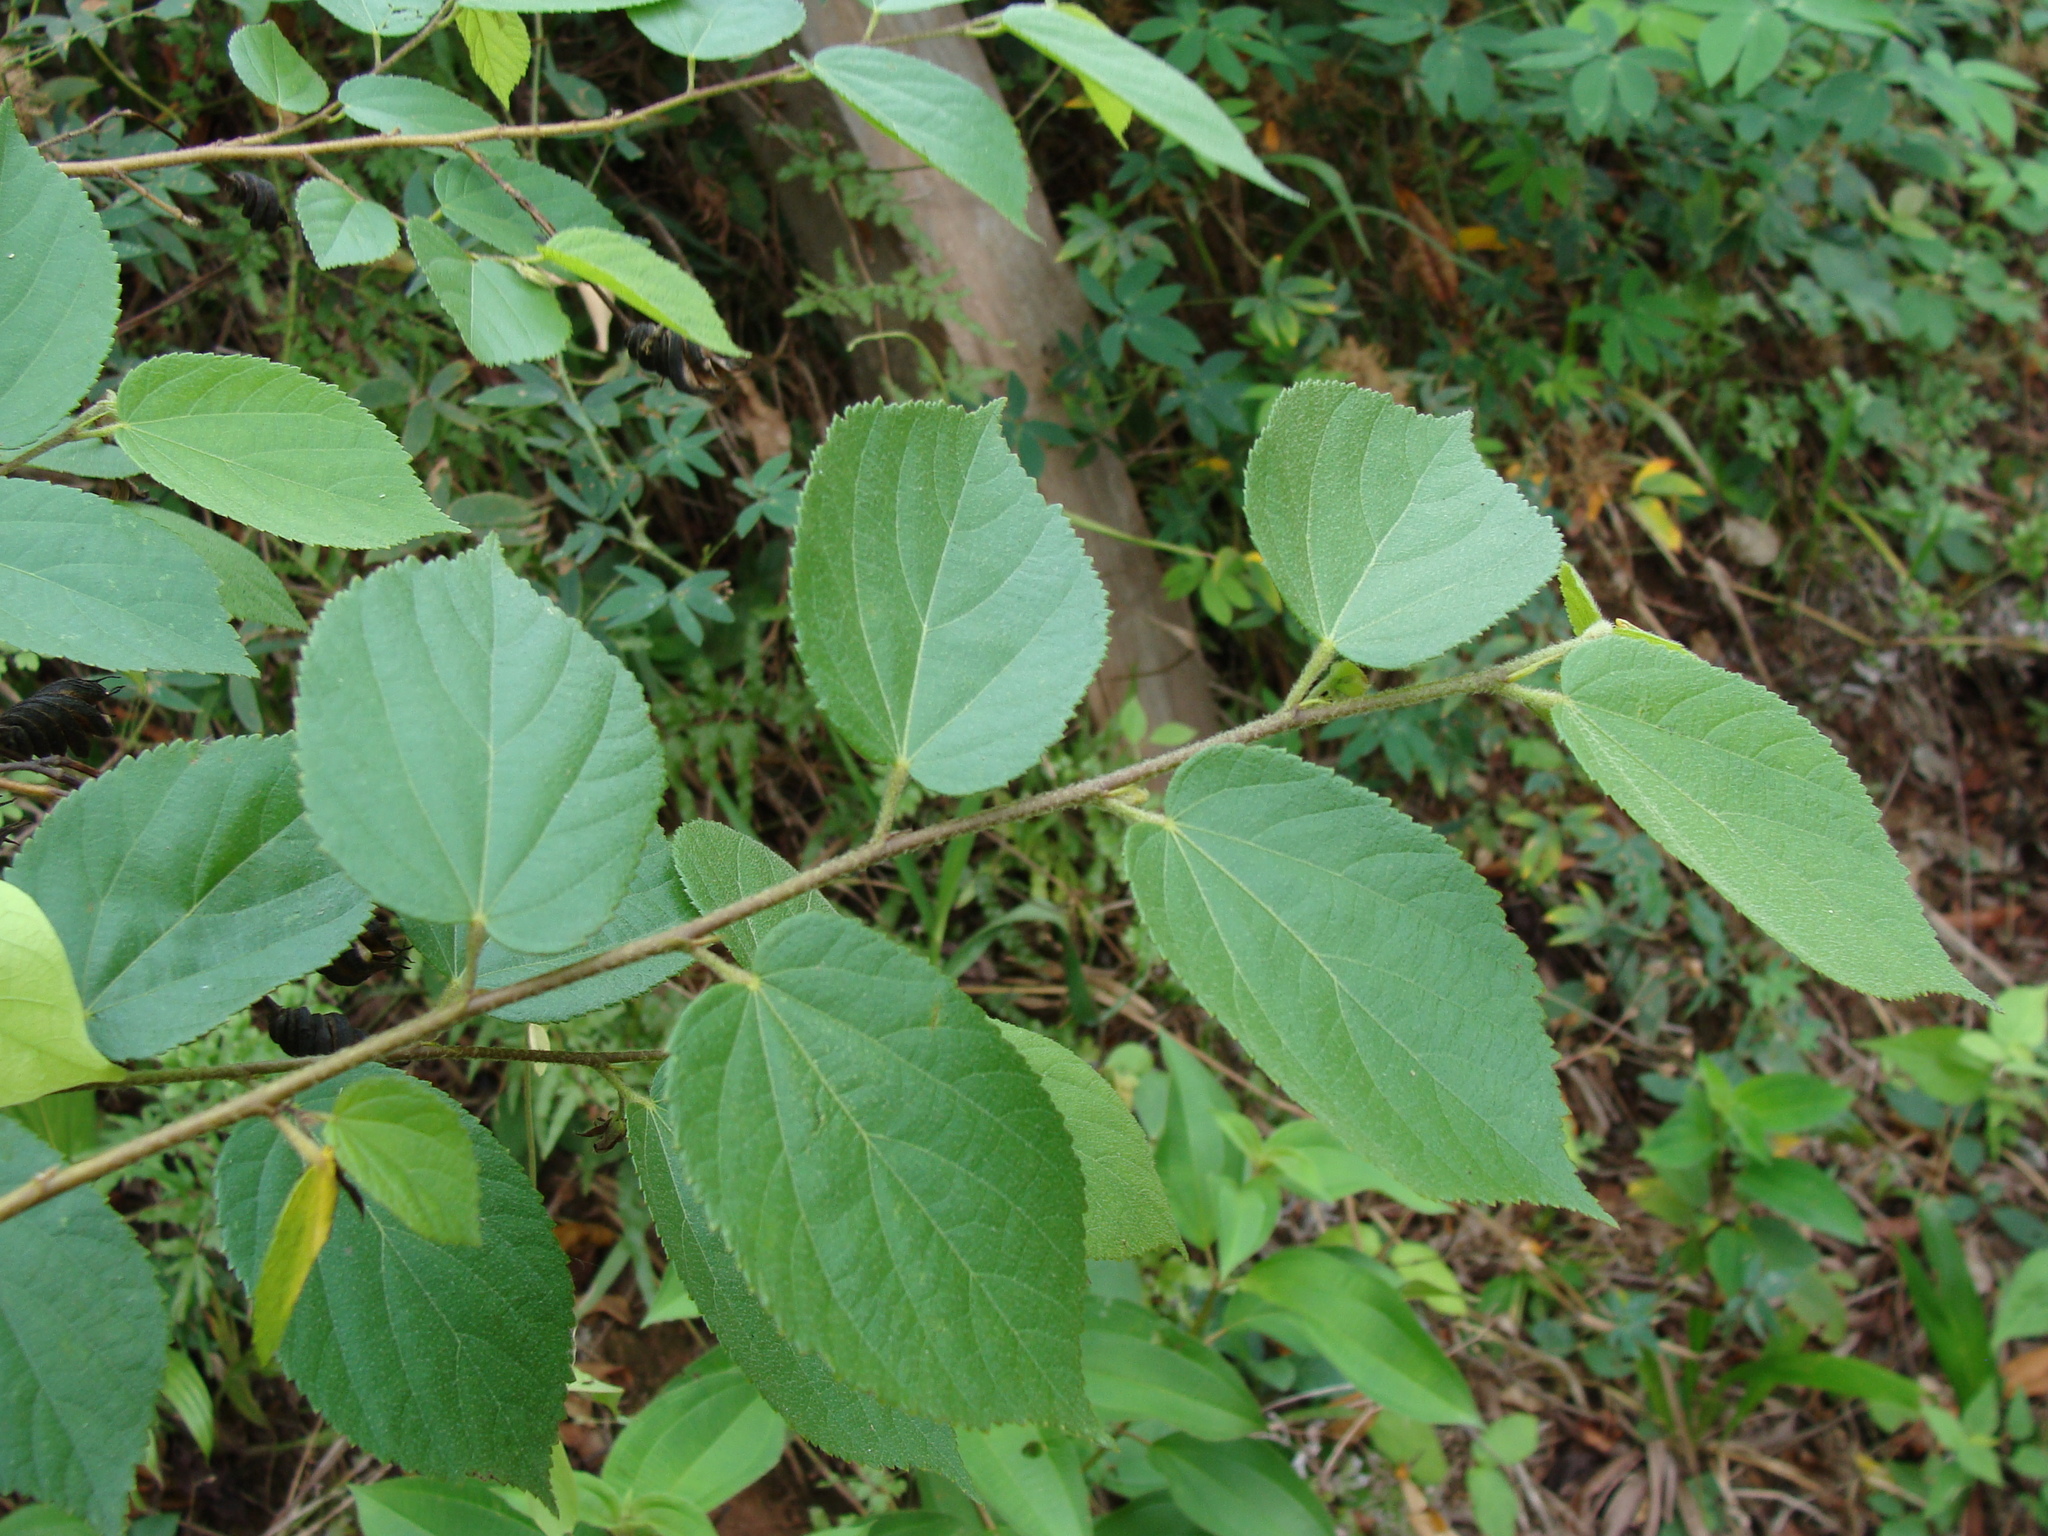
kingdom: Plantae
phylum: Tracheophyta
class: Magnoliopsida
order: Malvales
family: Malvaceae
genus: Helicteres
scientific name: Helicteres guazumifolia
